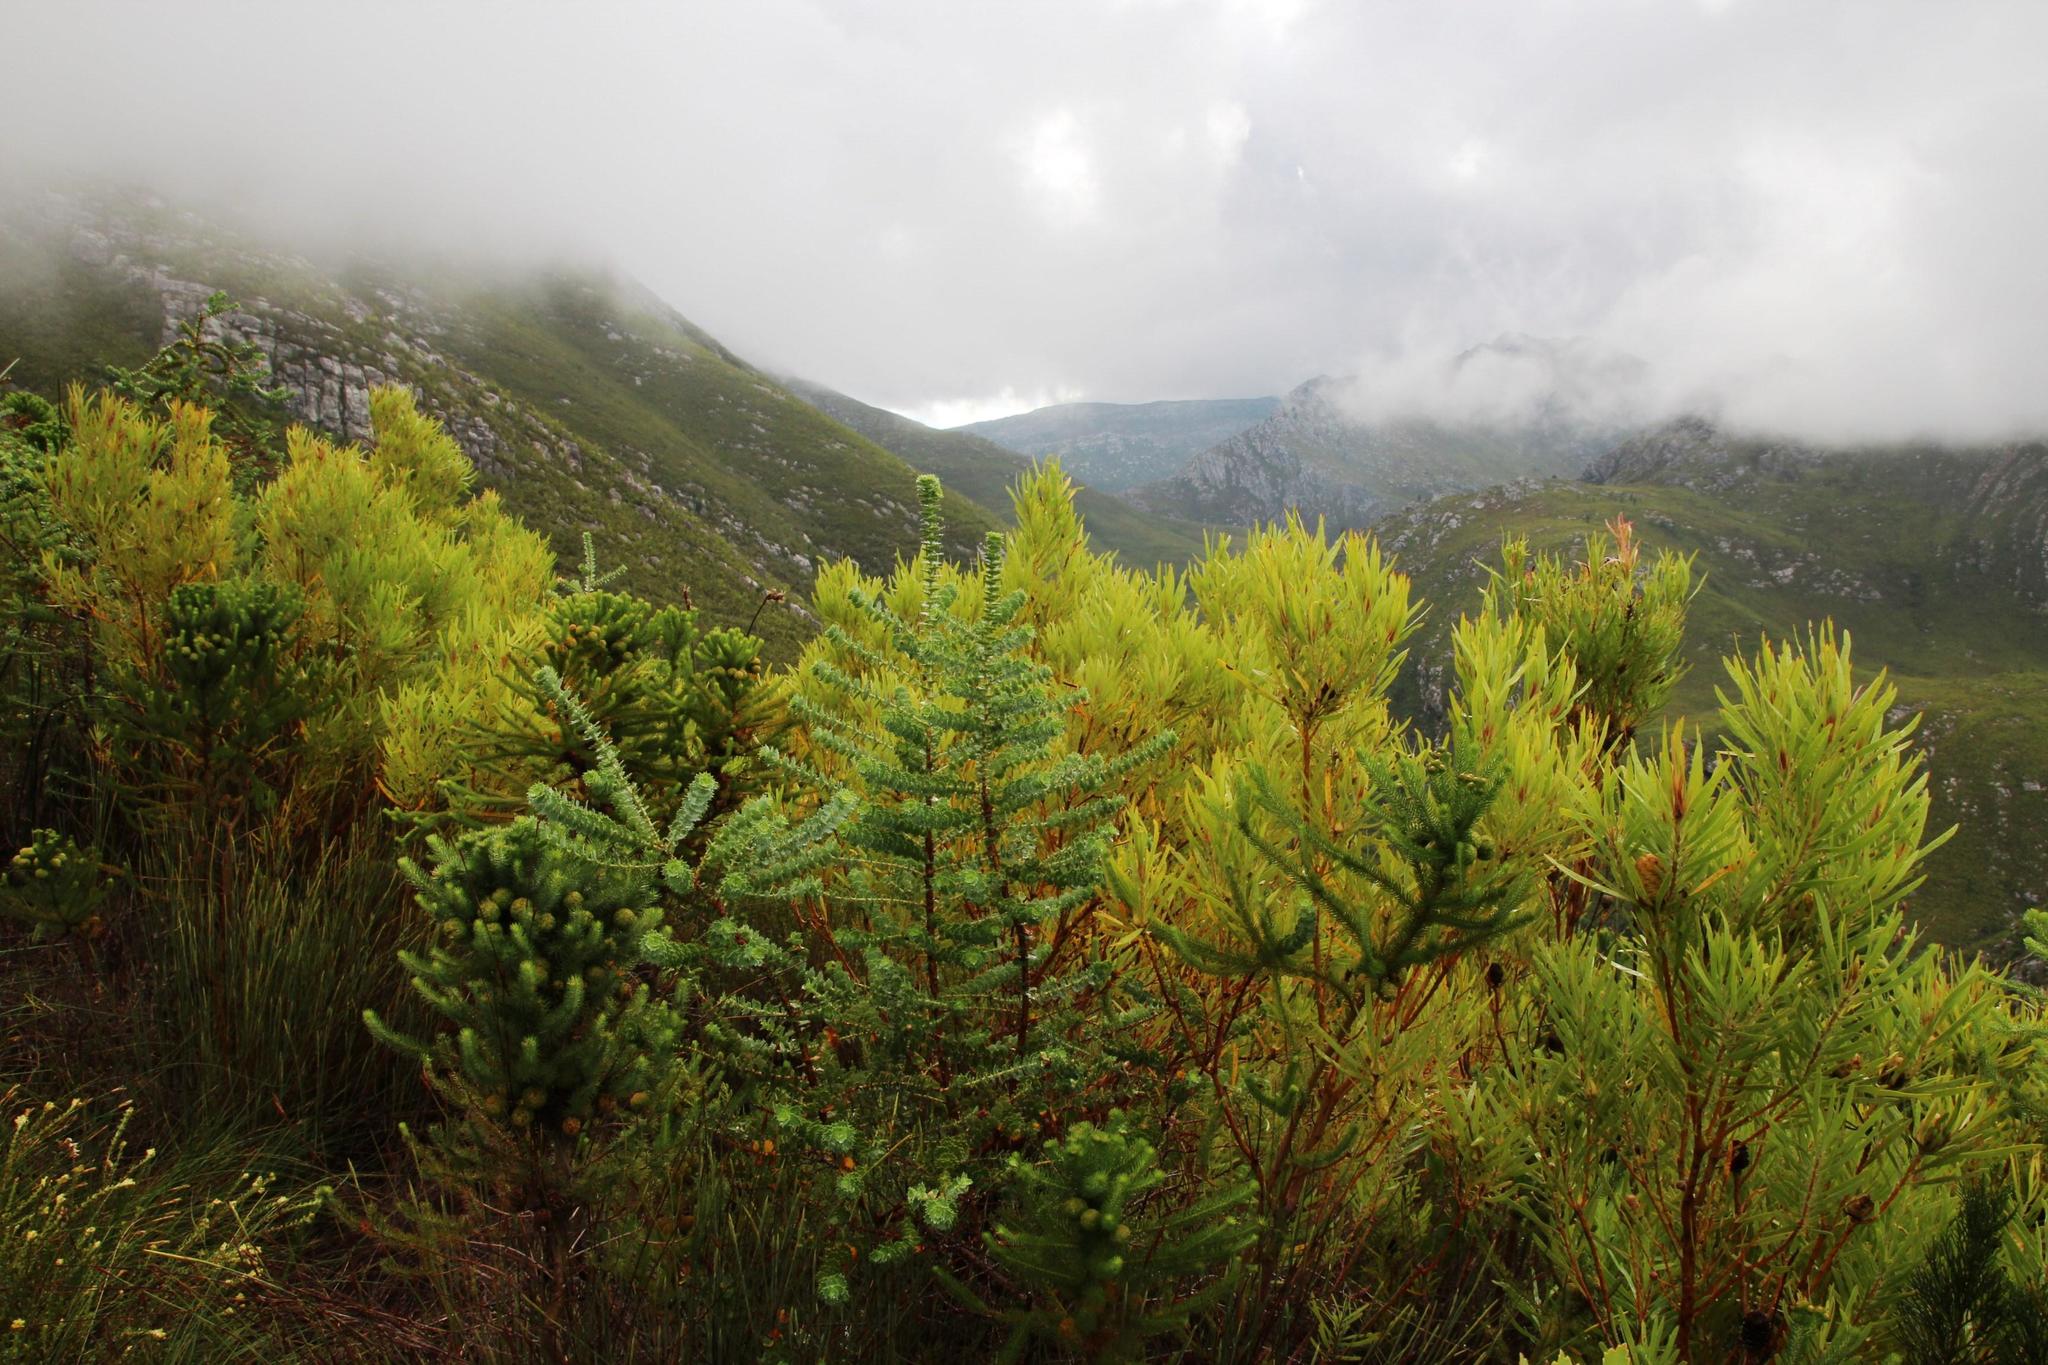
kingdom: Plantae
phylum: Tracheophyta
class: Magnoliopsida
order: Rosales
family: Rosaceae
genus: Cliffortia
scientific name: Cliffortia reniformis
